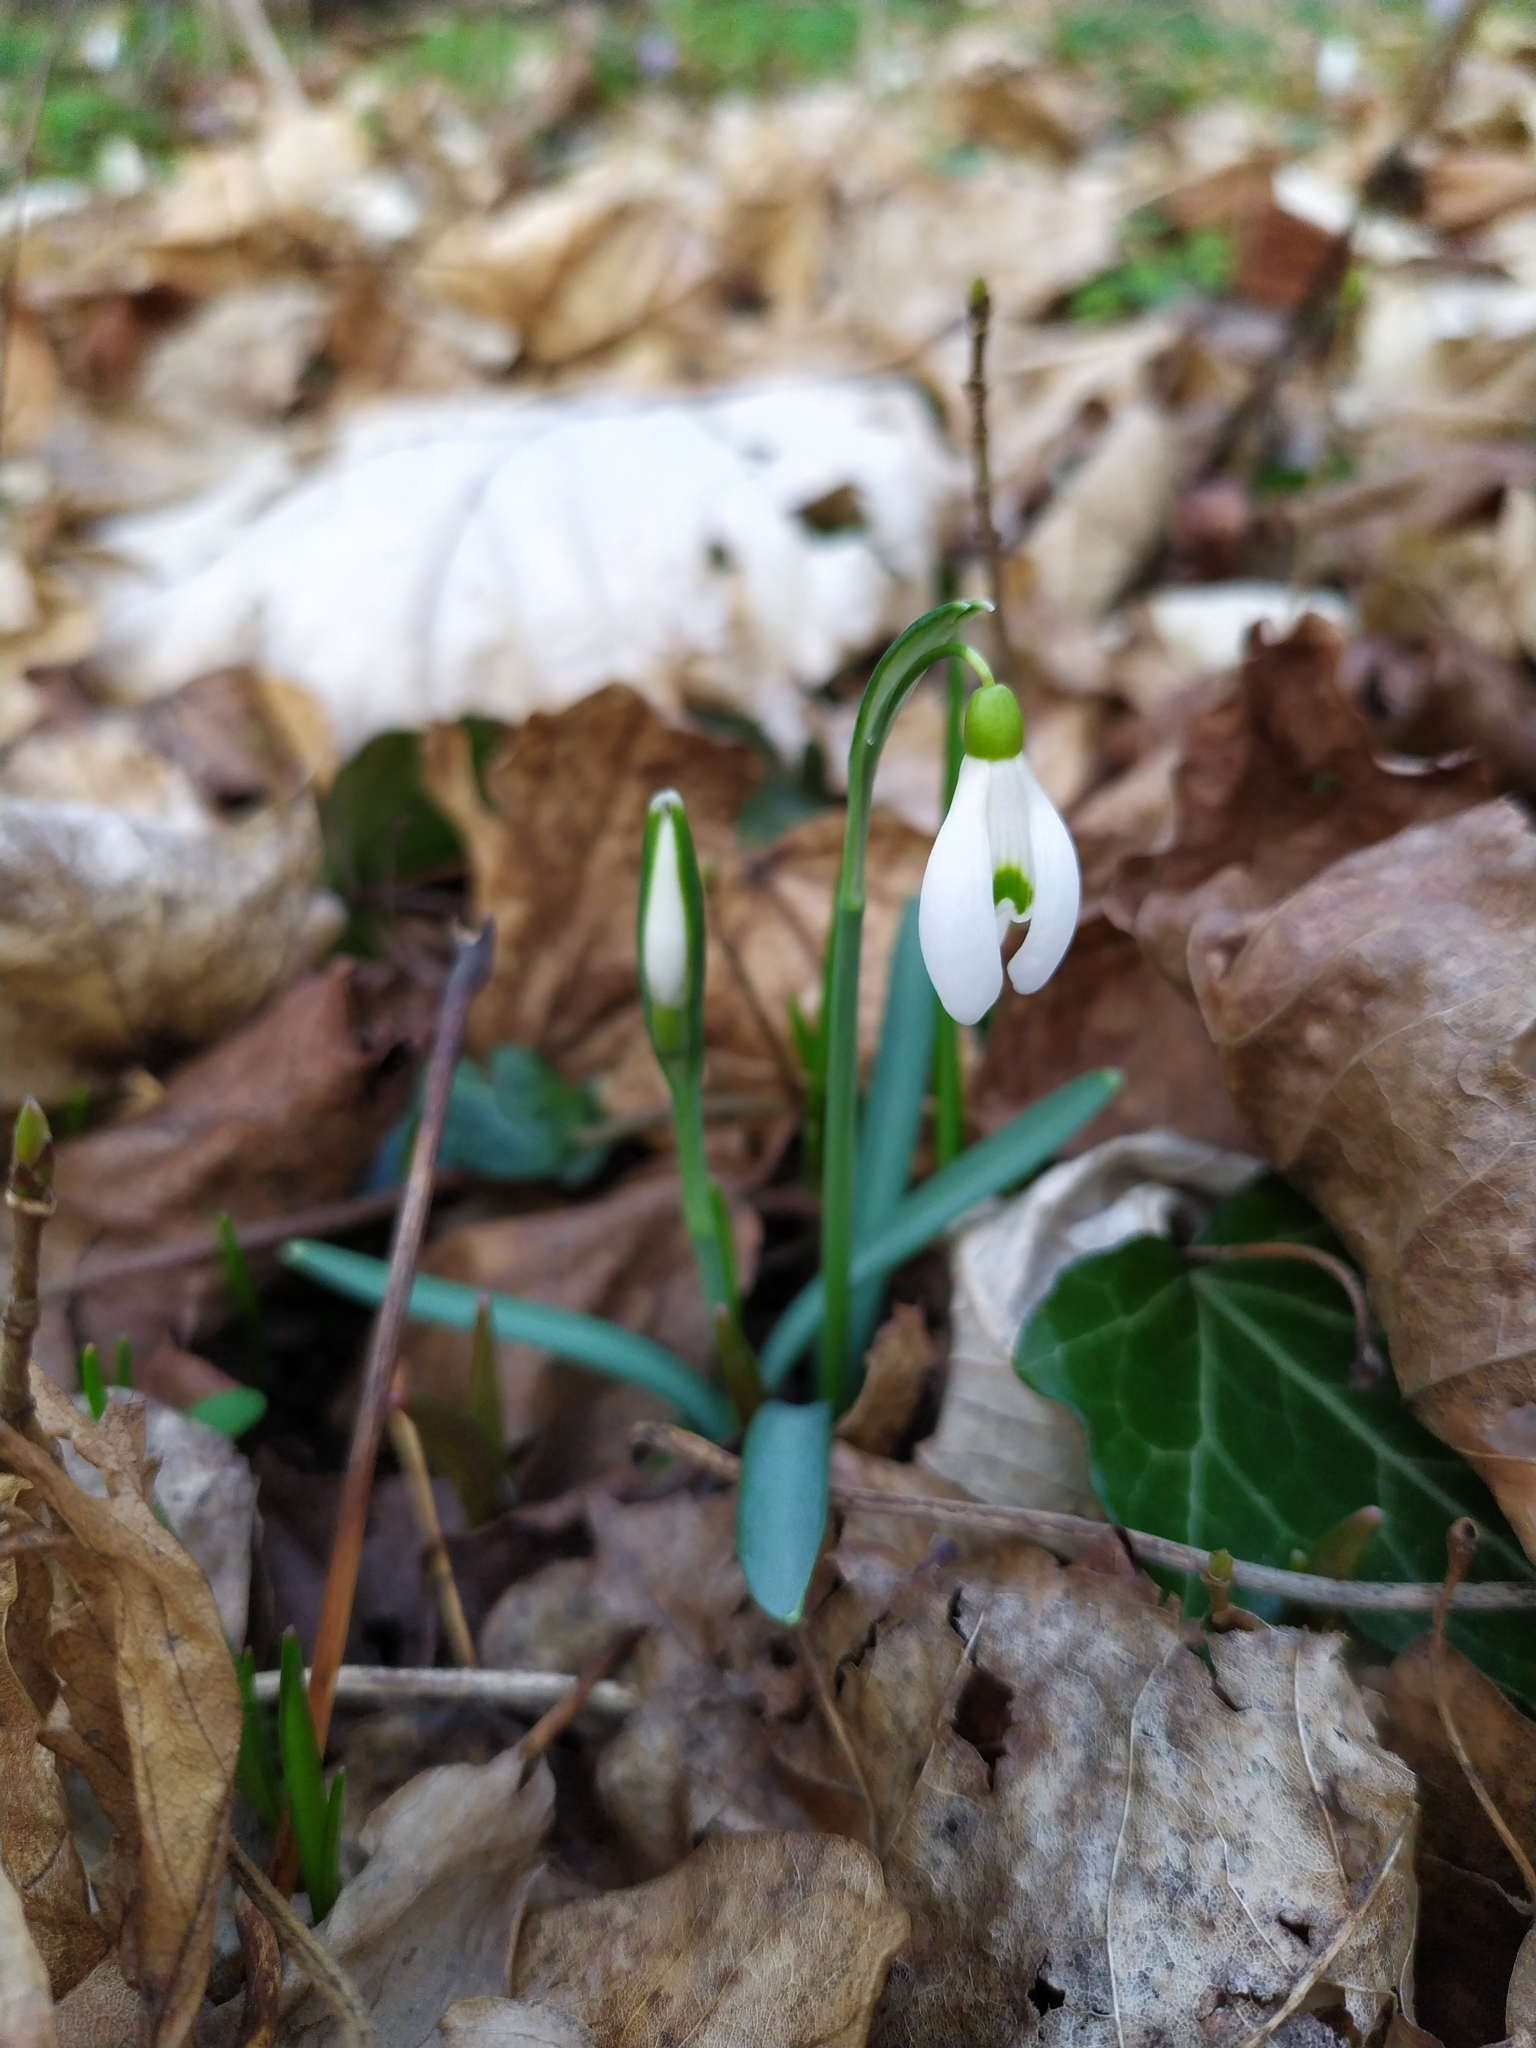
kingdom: Plantae
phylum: Tracheophyta
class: Liliopsida
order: Asparagales
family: Amaryllidaceae
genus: Galanthus
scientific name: Galanthus nivalis
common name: Snowdrop
